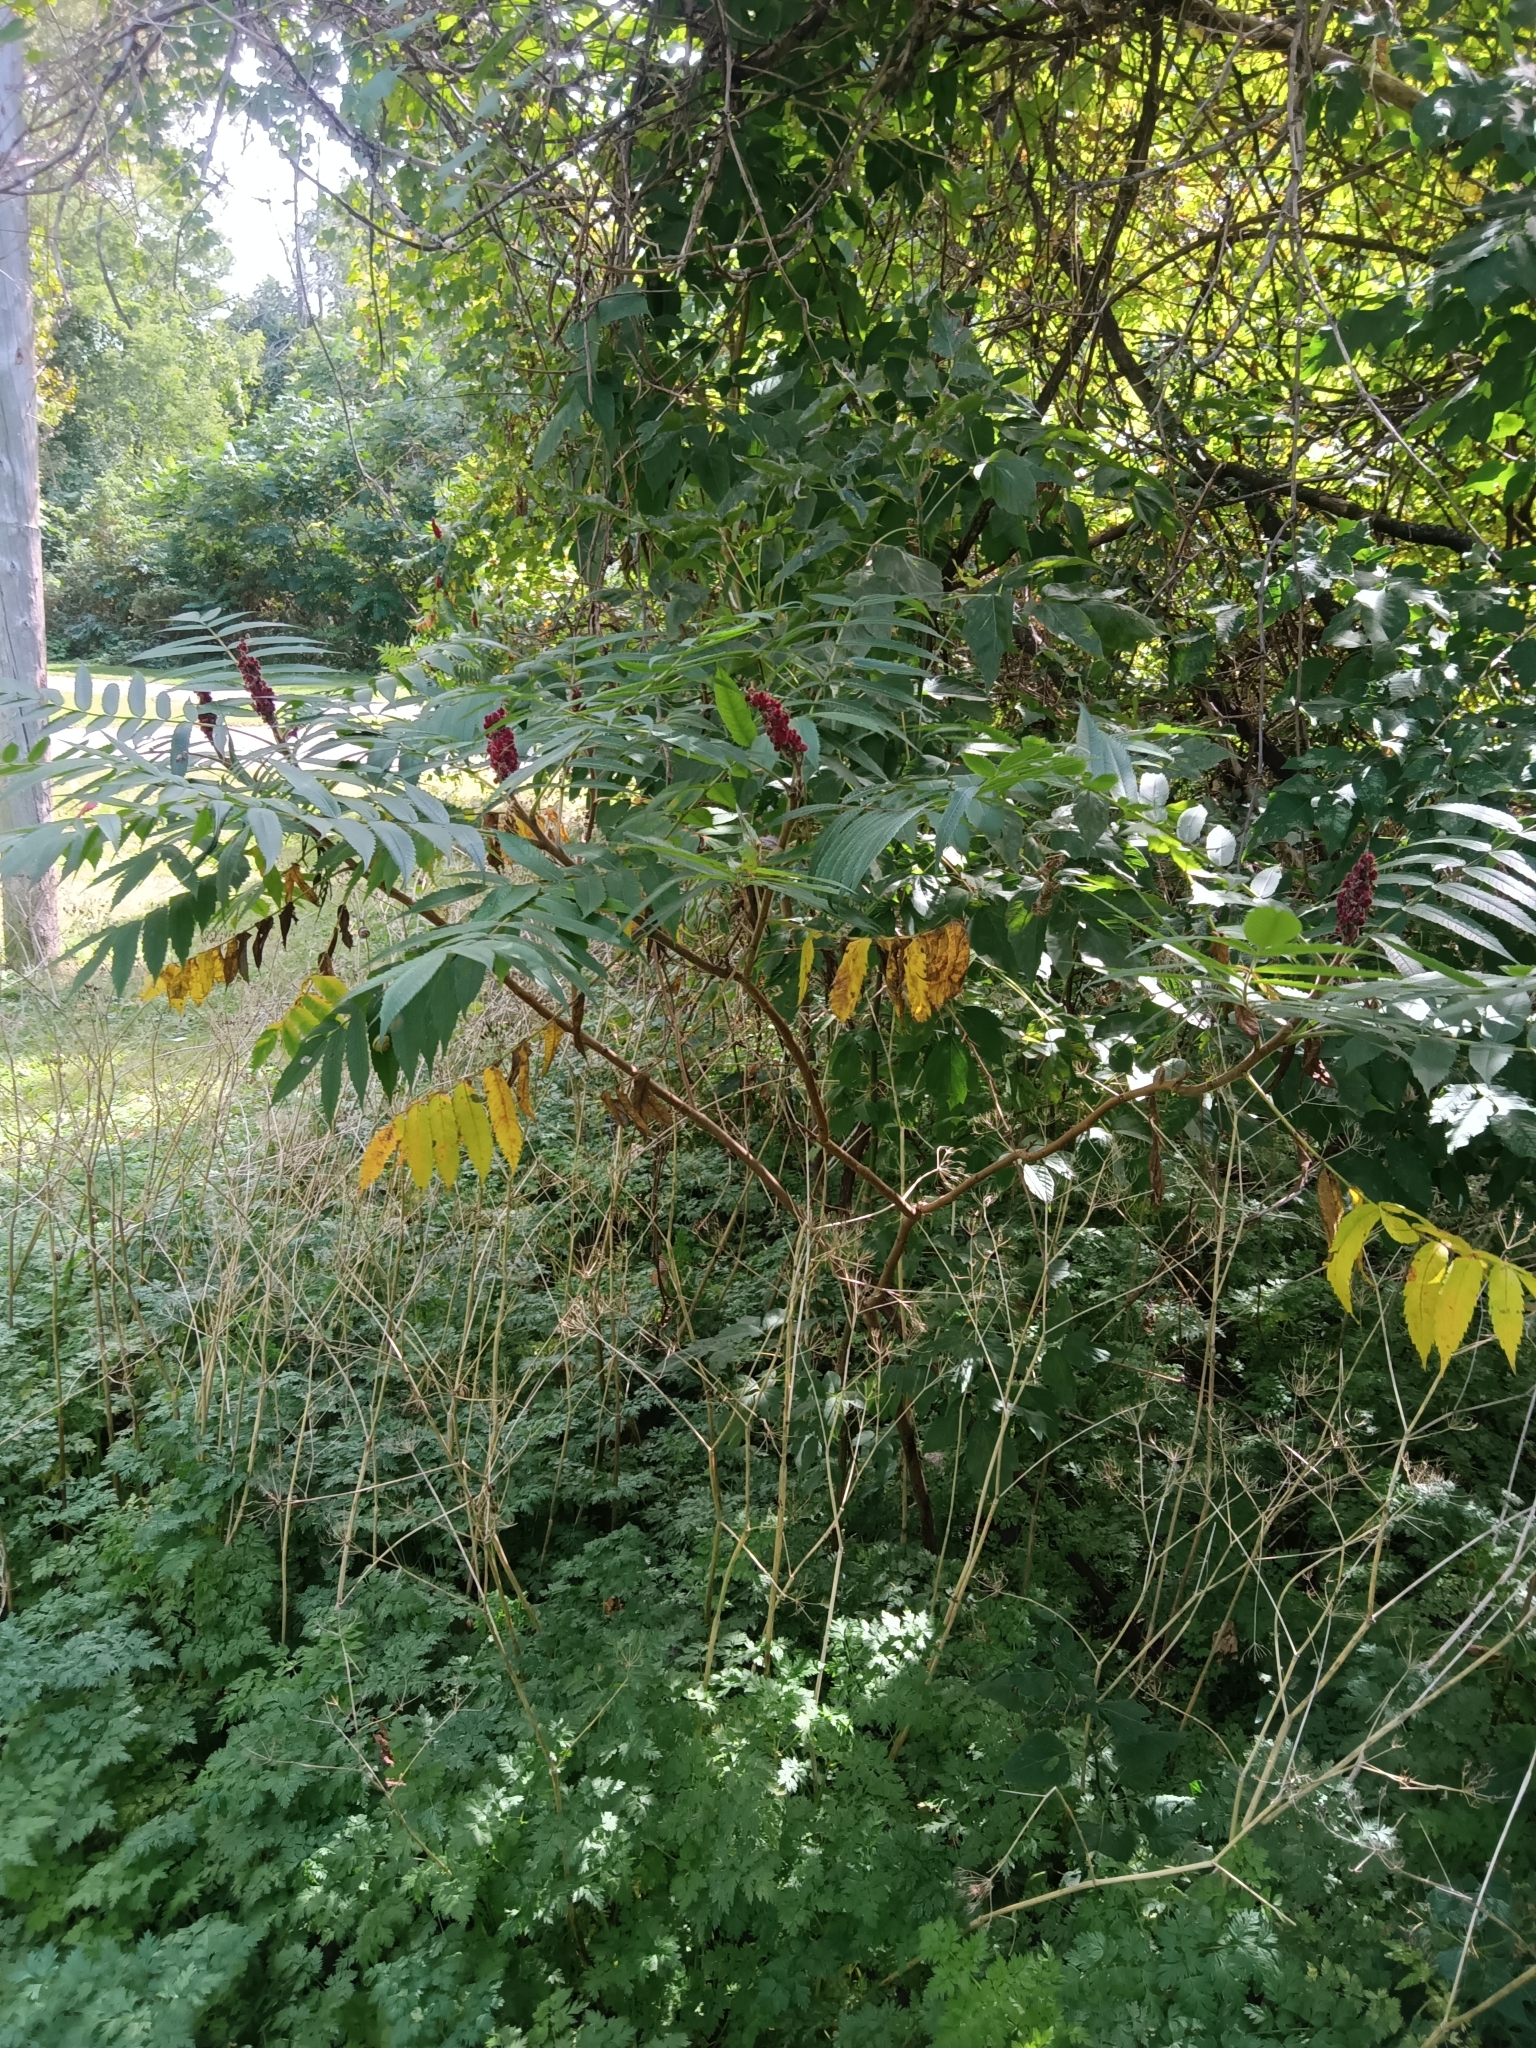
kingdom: Plantae
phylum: Tracheophyta
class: Magnoliopsida
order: Sapindales
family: Anacardiaceae
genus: Rhus
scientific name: Rhus typhina
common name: Staghorn sumac
